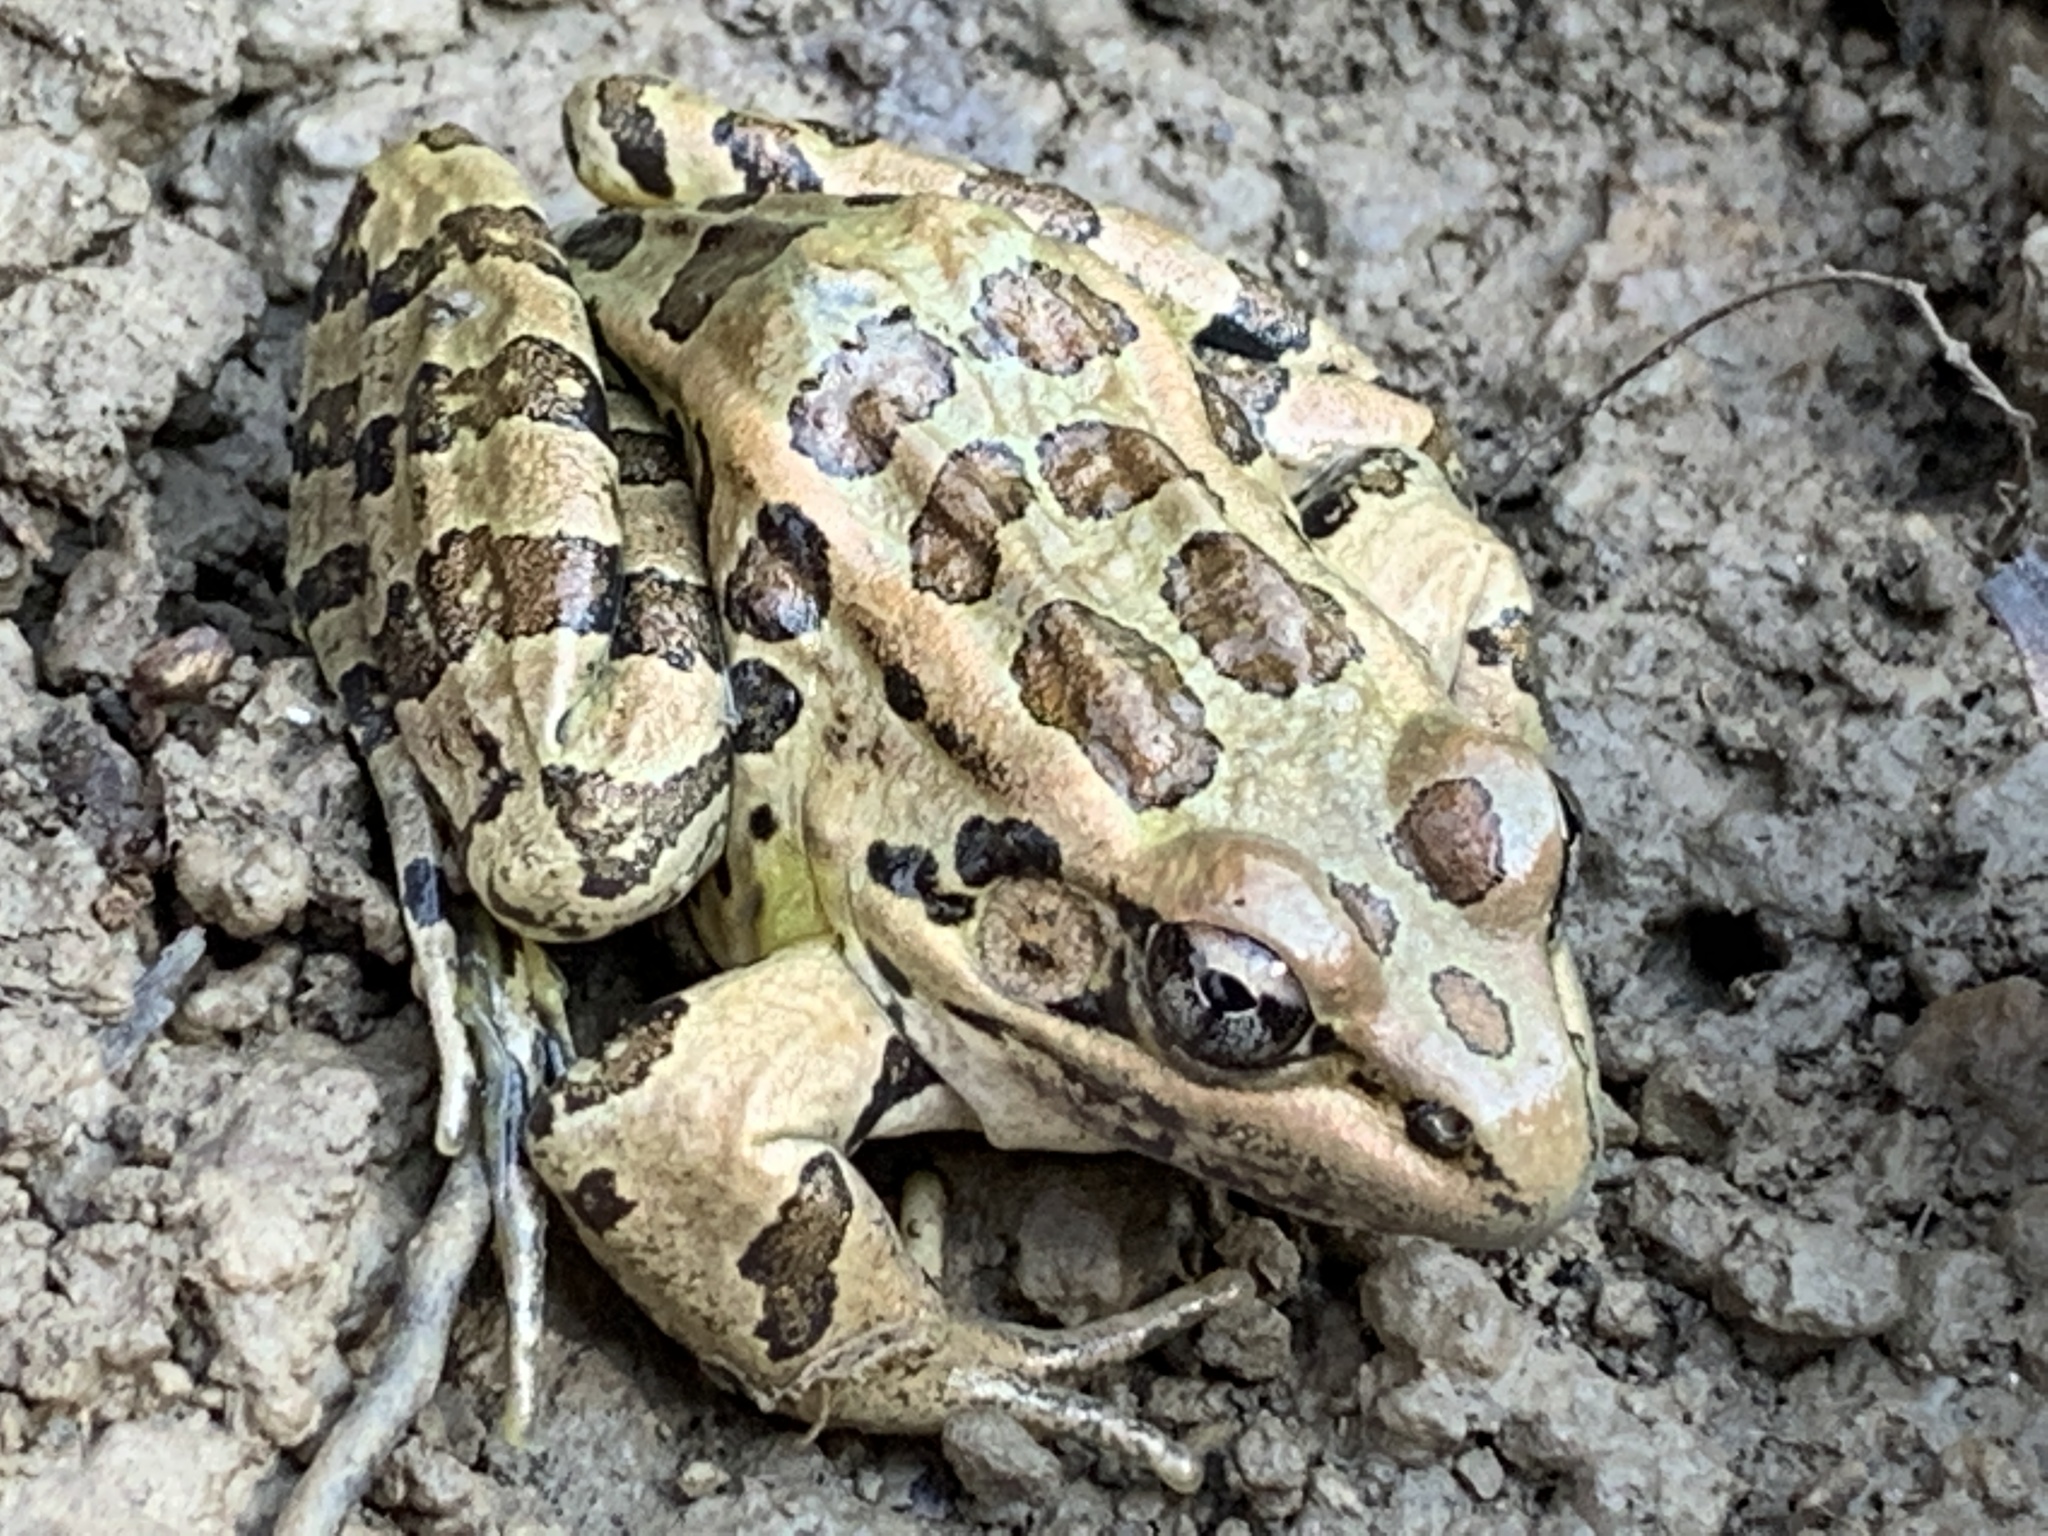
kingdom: Animalia
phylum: Chordata
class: Amphibia
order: Anura
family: Ranidae
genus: Lithobates
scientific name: Lithobates palustris
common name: Pickerel frog
